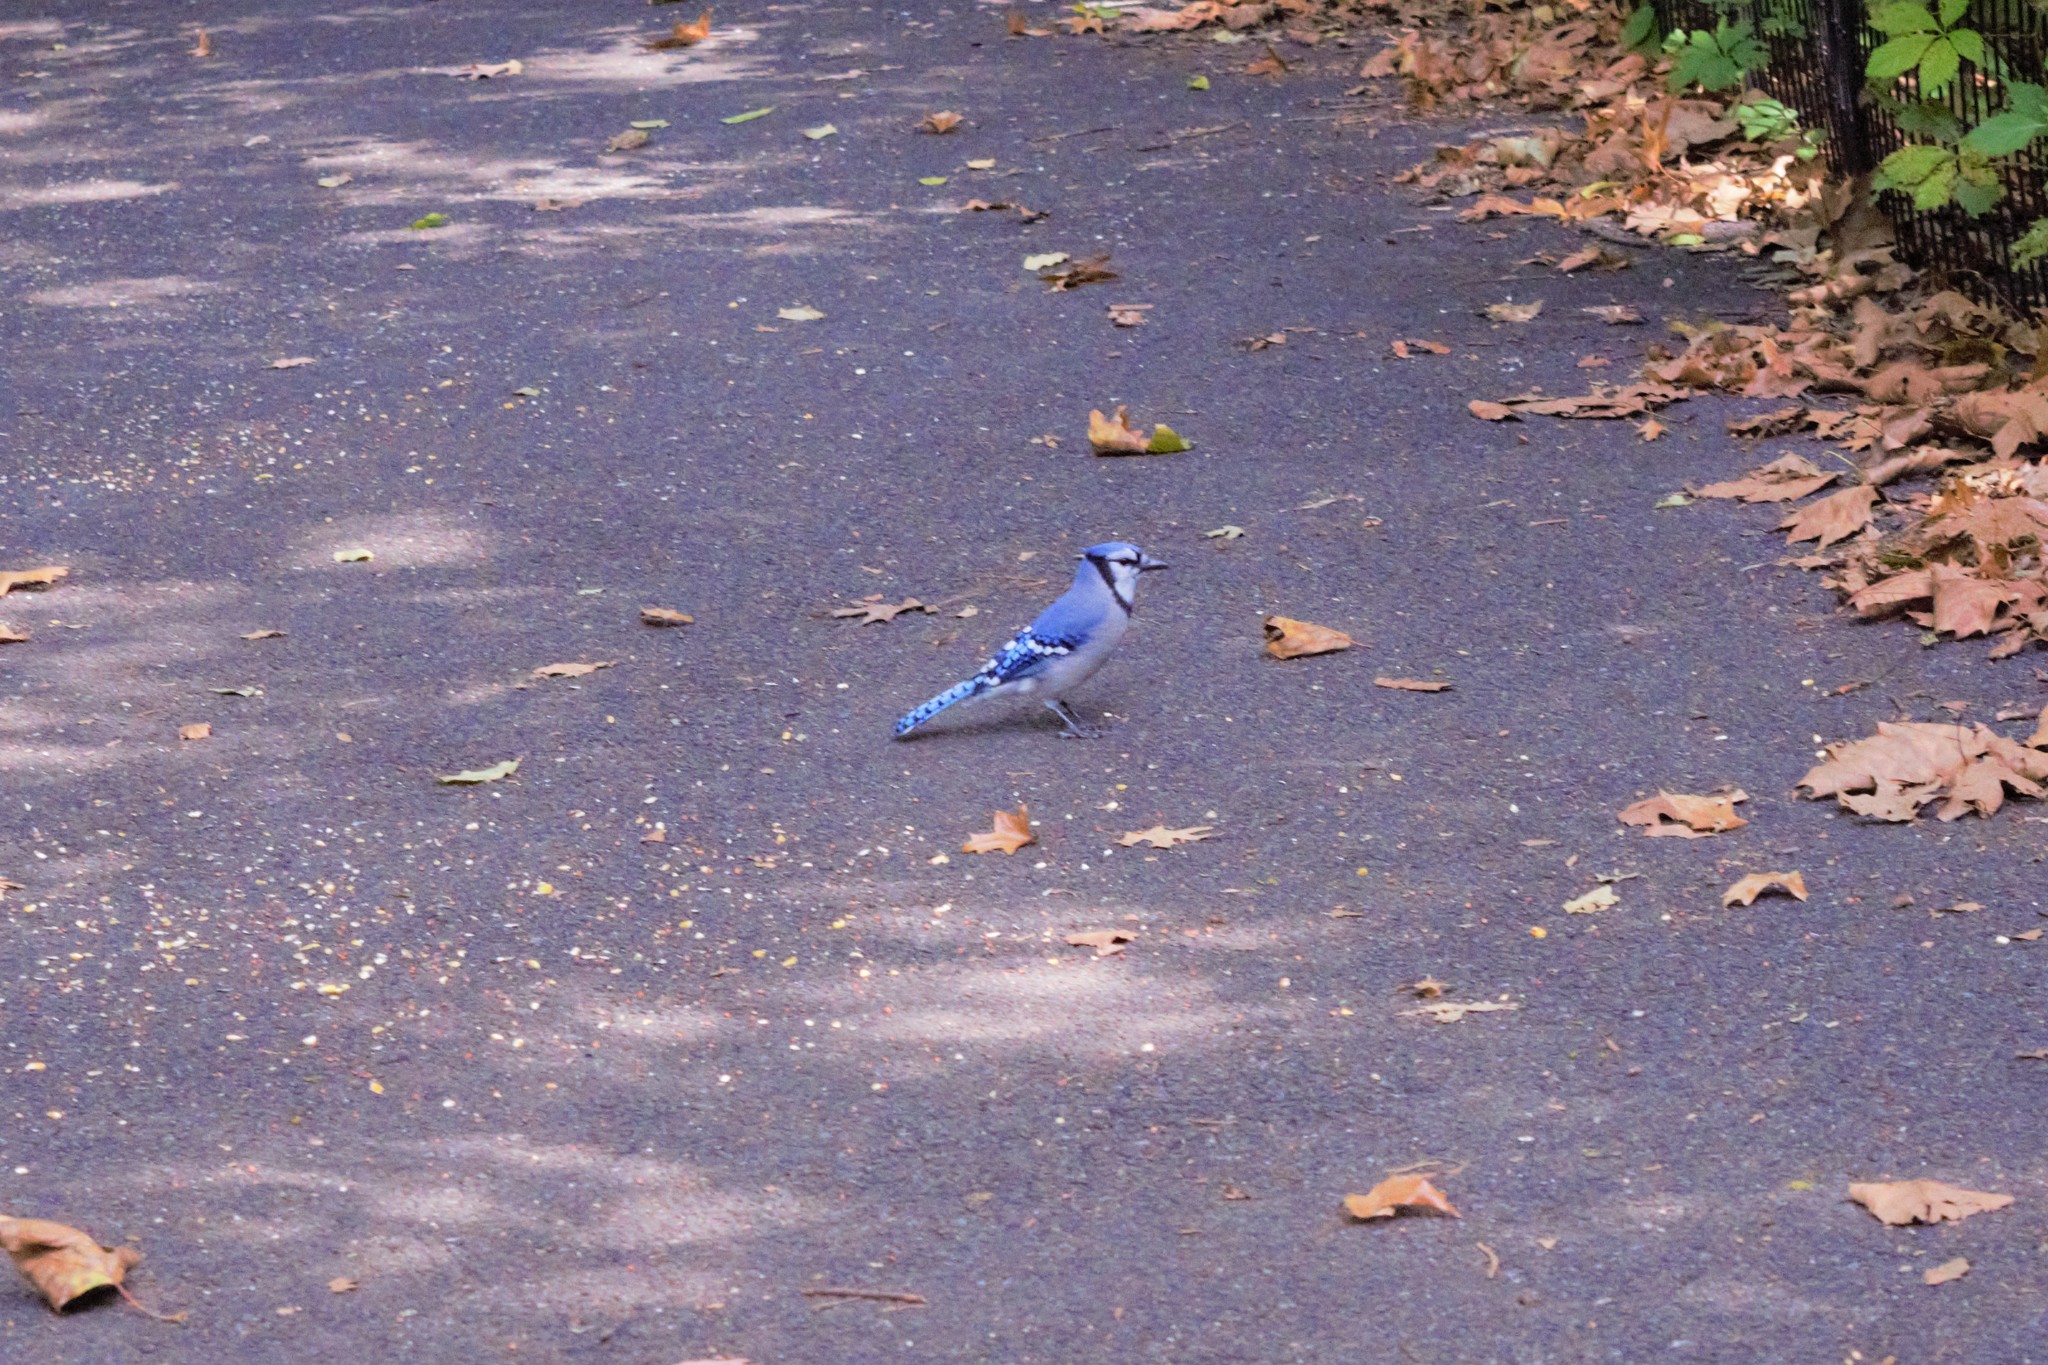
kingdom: Animalia
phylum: Chordata
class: Aves
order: Passeriformes
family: Corvidae
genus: Cyanocitta
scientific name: Cyanocitta cristata
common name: Blue jay
